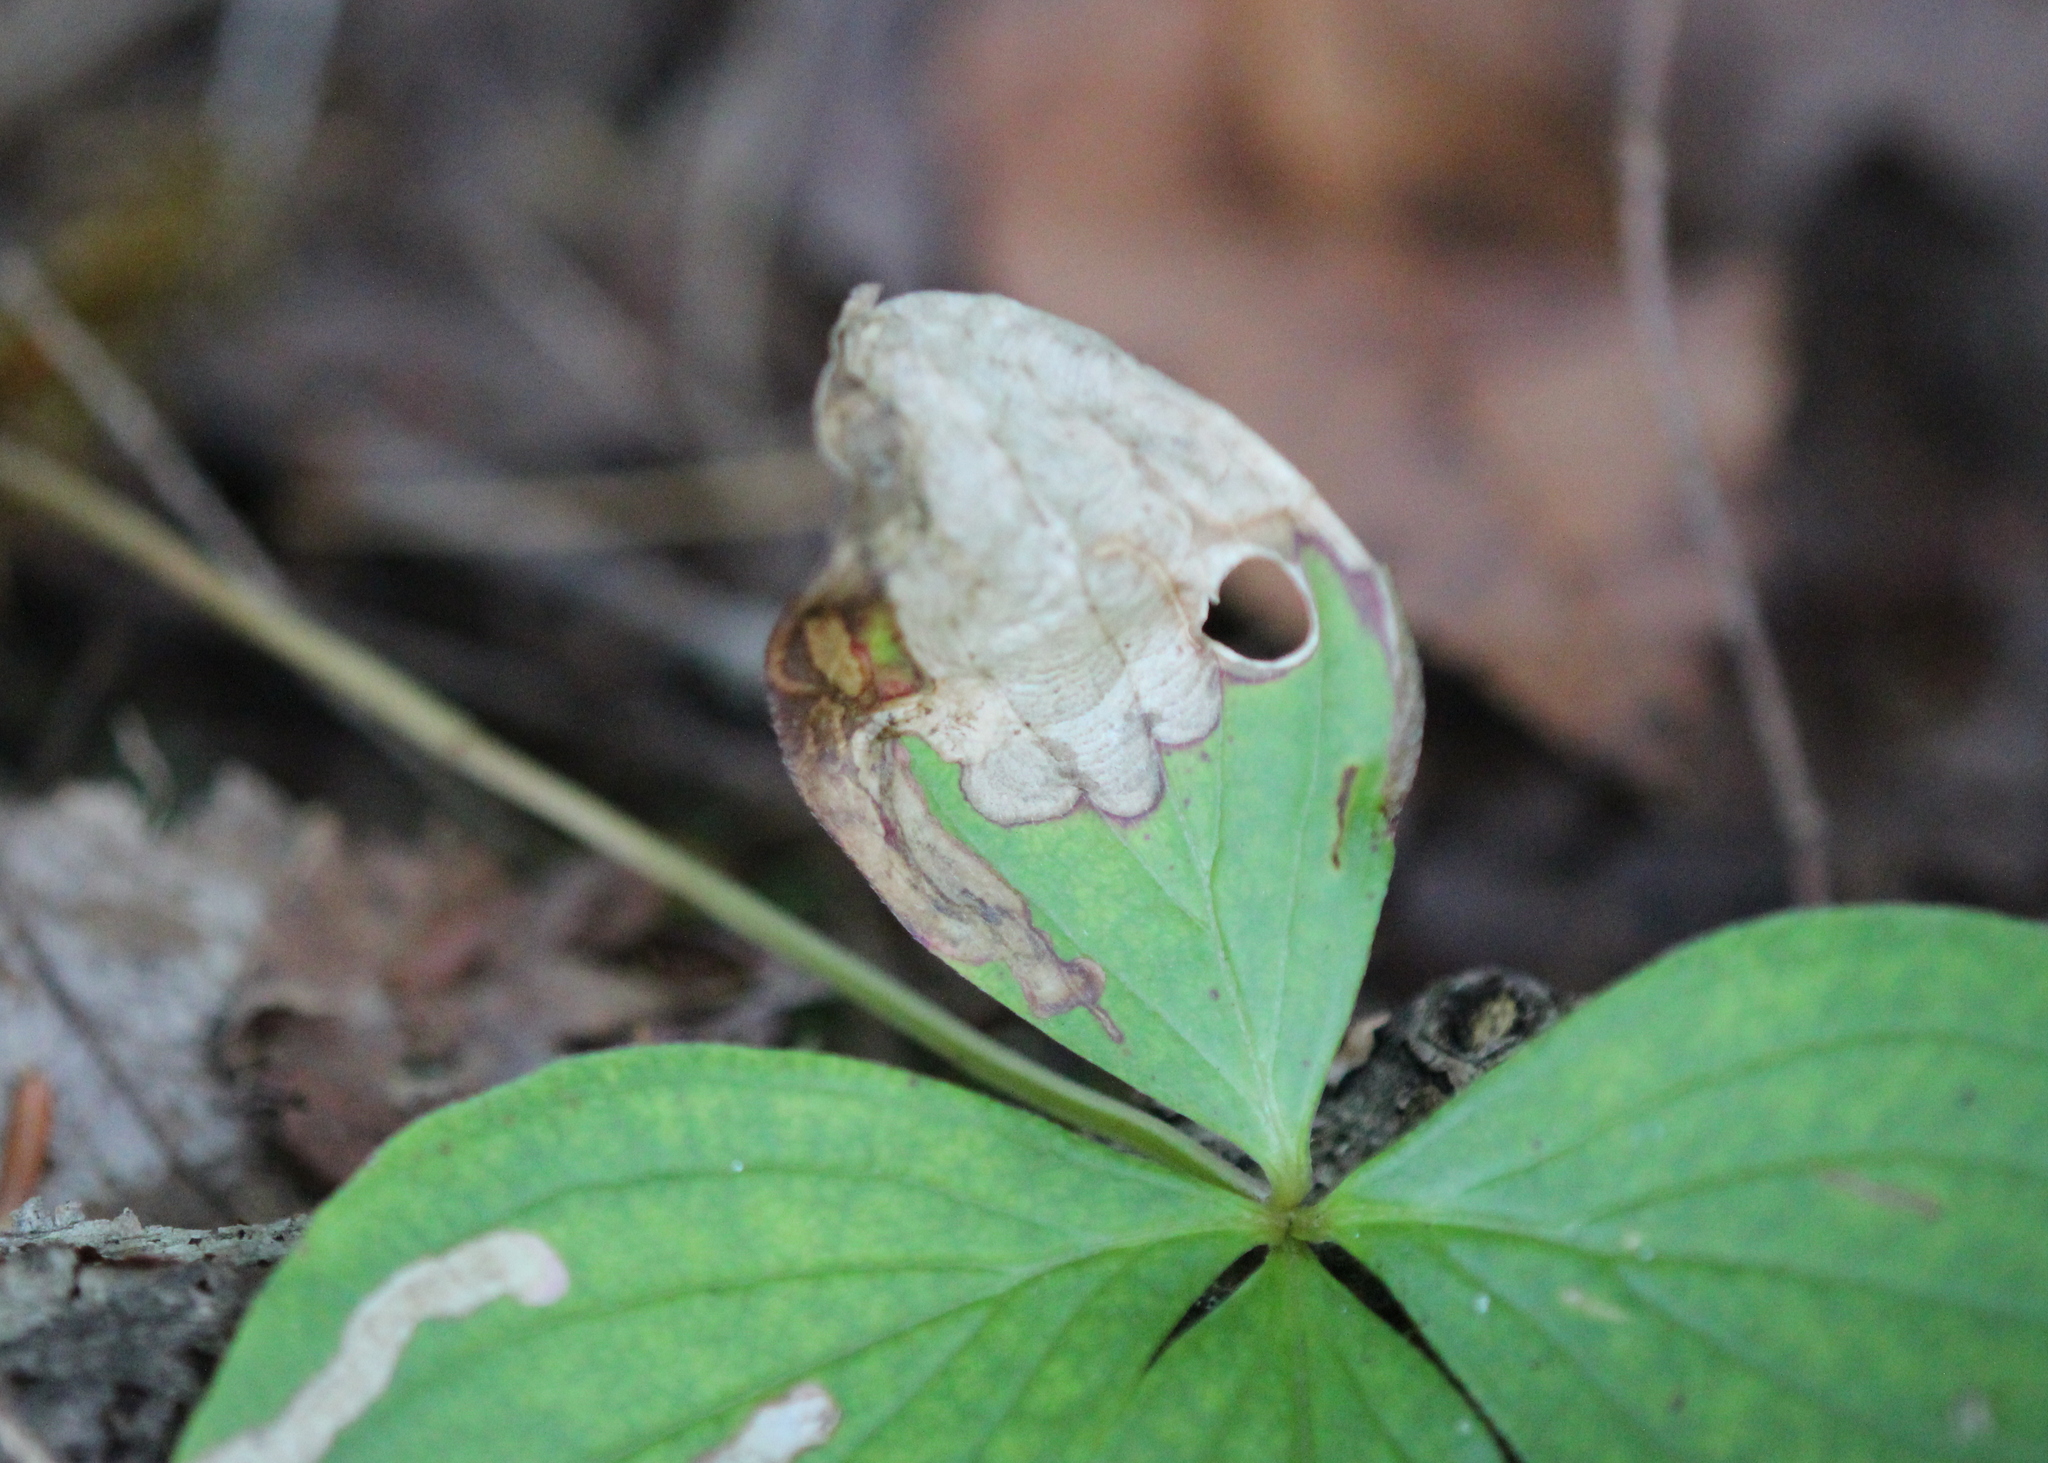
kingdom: Animalia
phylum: Arthropoda
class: Insecta
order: Lepidoptera
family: Heliozelidae
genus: Antispila
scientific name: Antispila freemani
